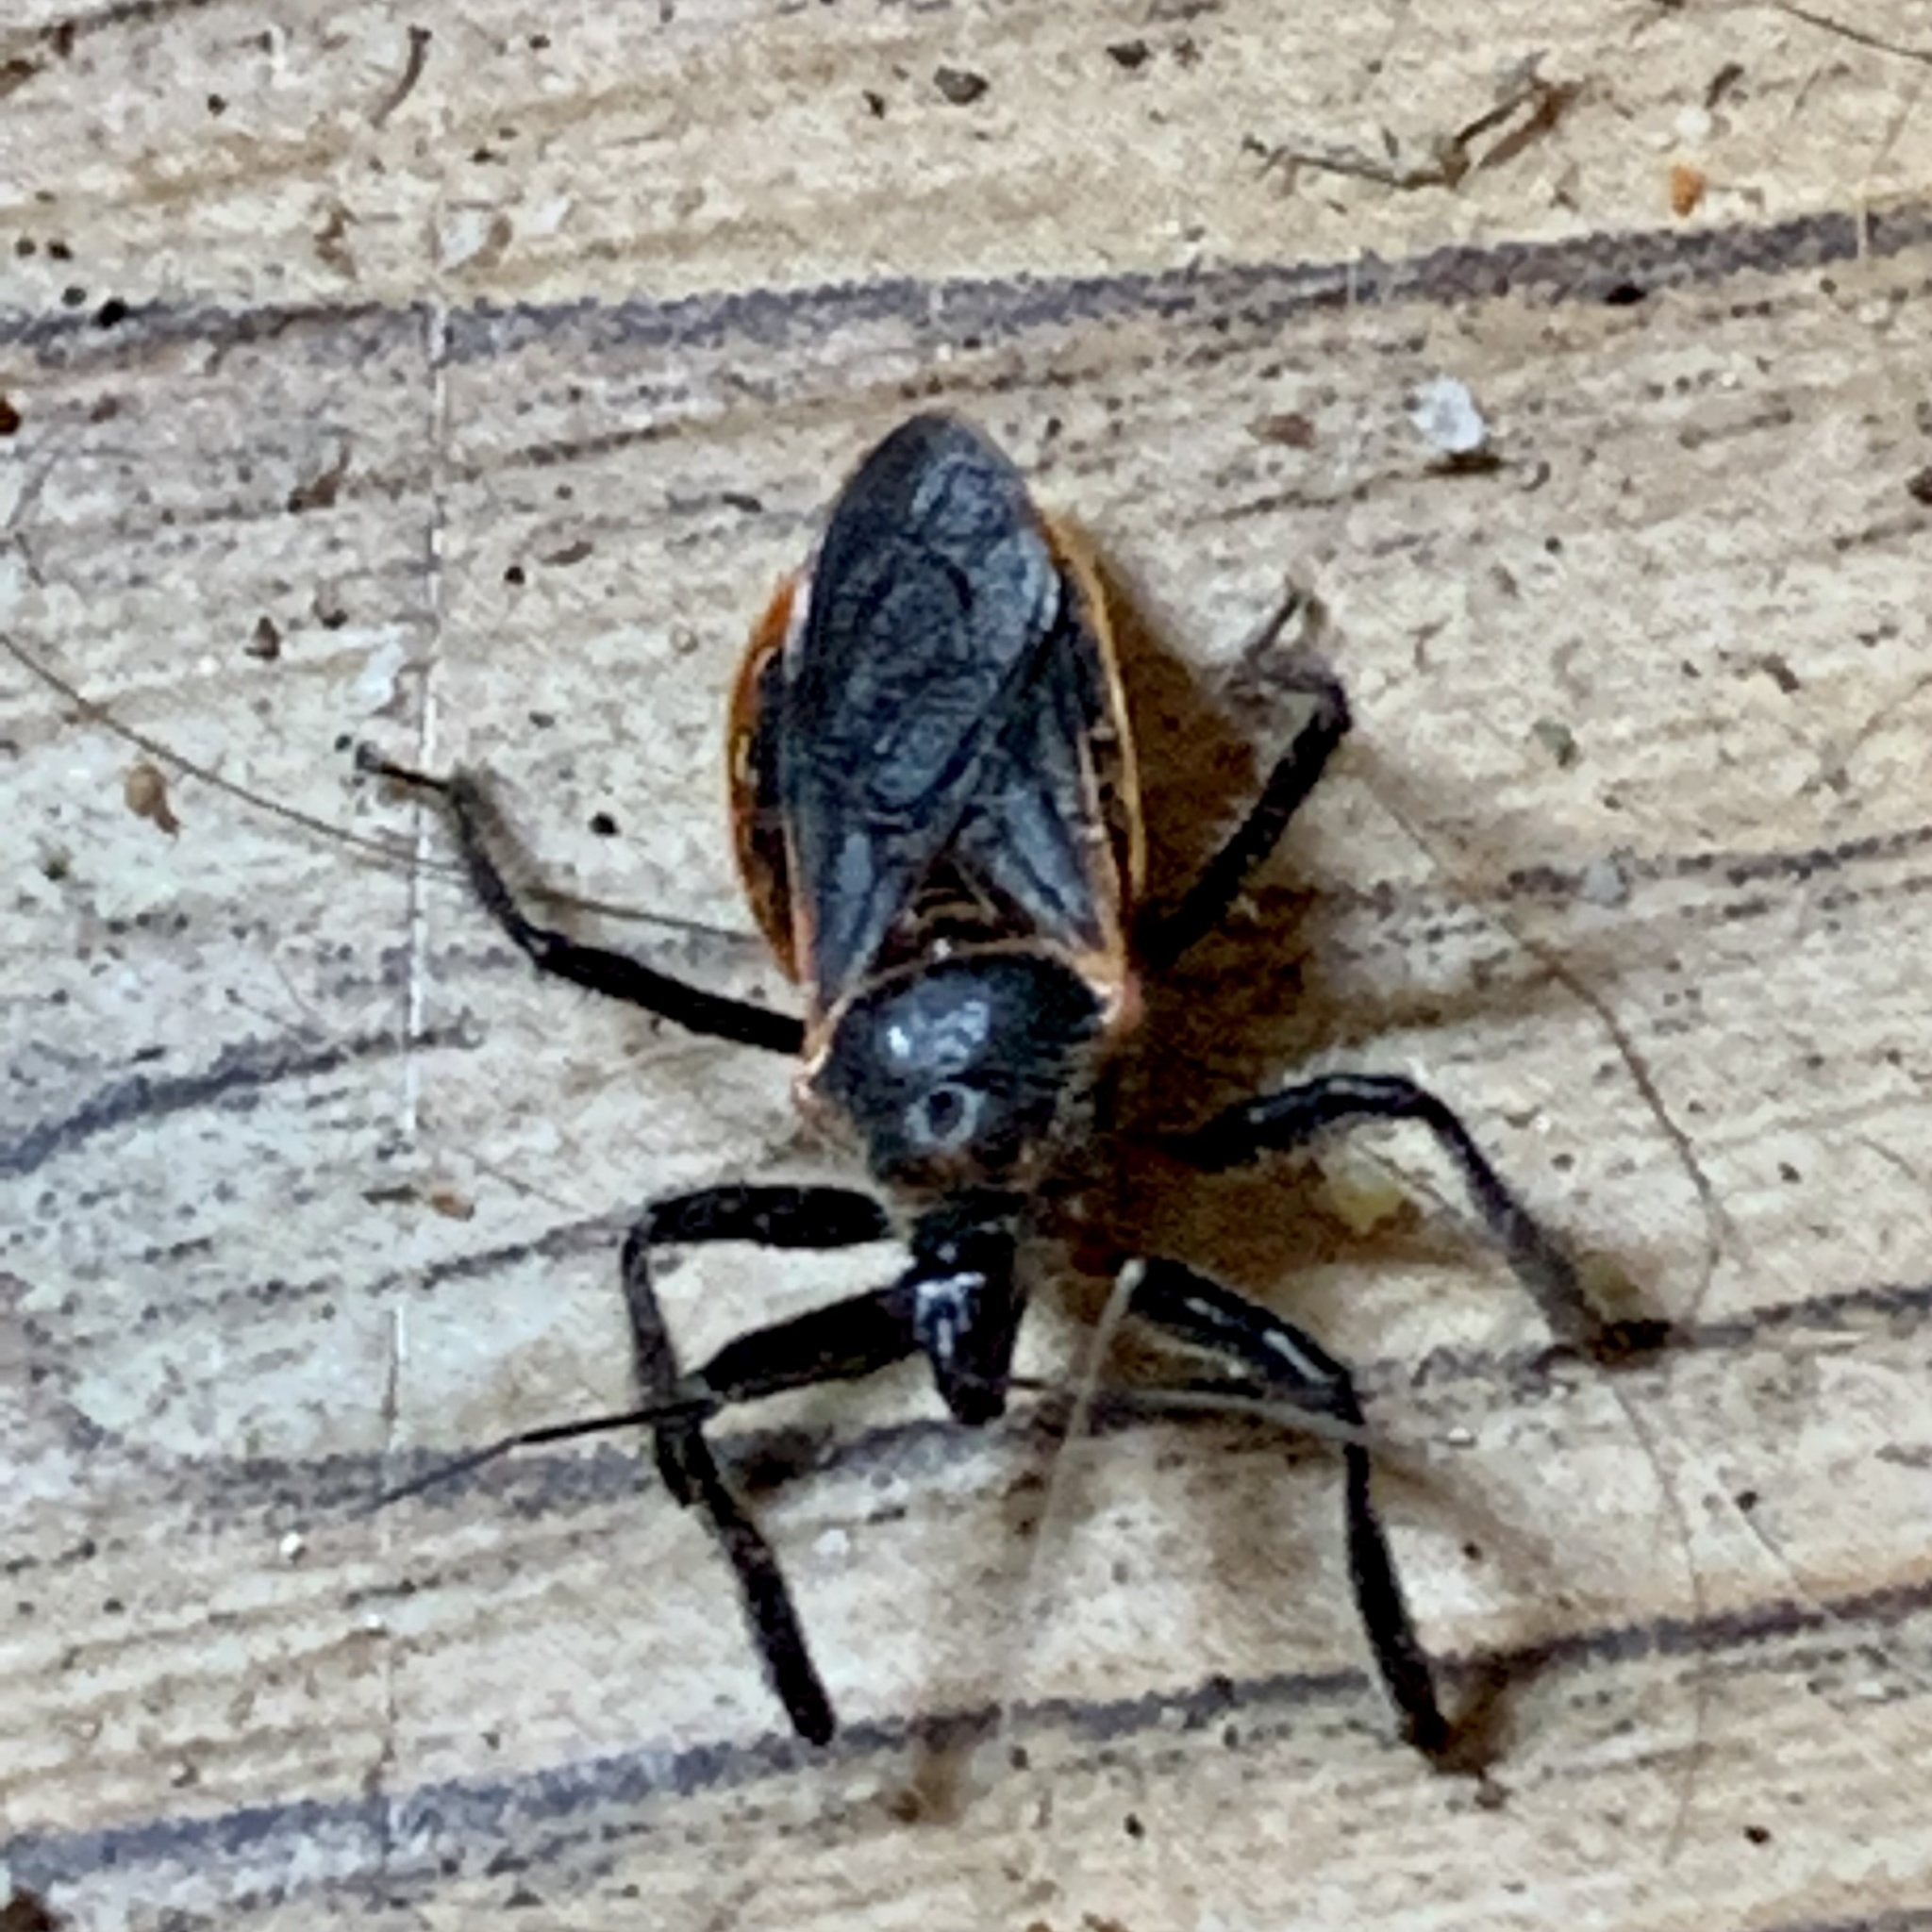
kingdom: Animalia
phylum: Arthropoda
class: Insecta
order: Hemiptera
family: Reduviidae
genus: Apiomerus
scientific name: Apiomerus crassipes
